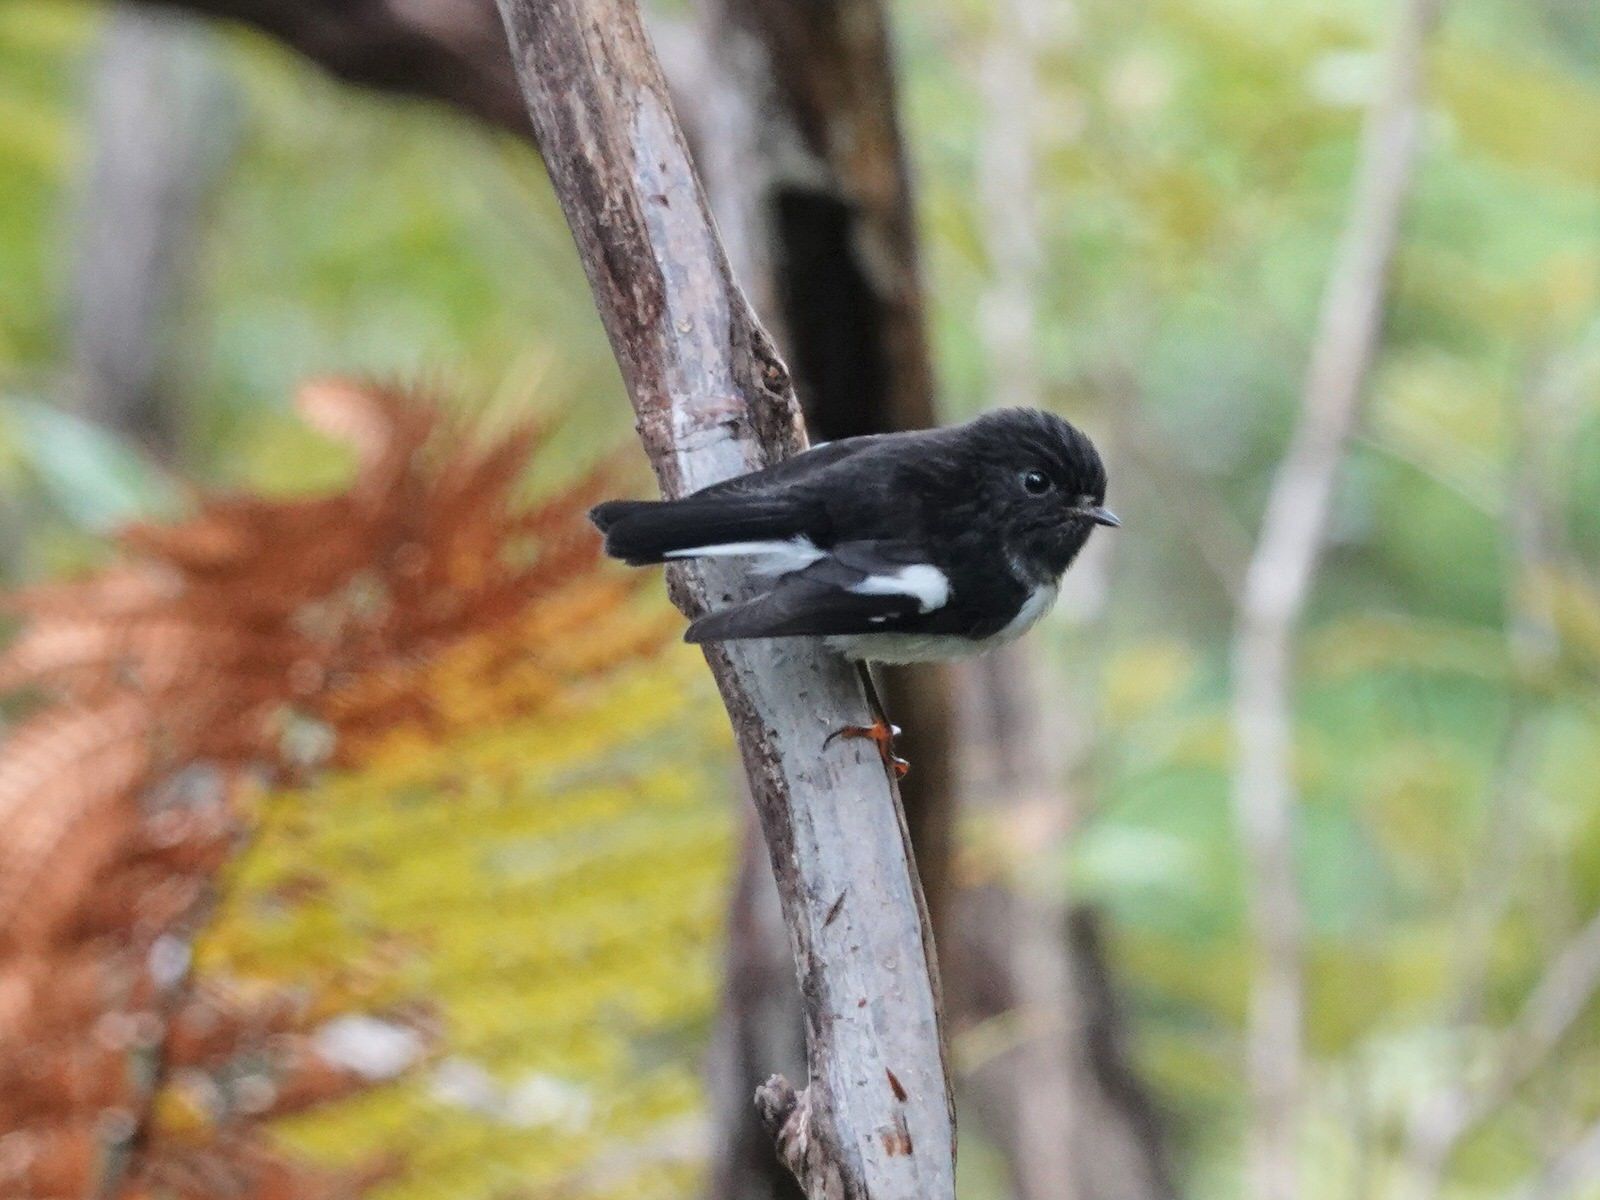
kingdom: Animalia
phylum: Chordata
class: Aves
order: Passeriformes
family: Petroicidae
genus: Petroica
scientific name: Petroica macrocephala
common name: Tomtit
